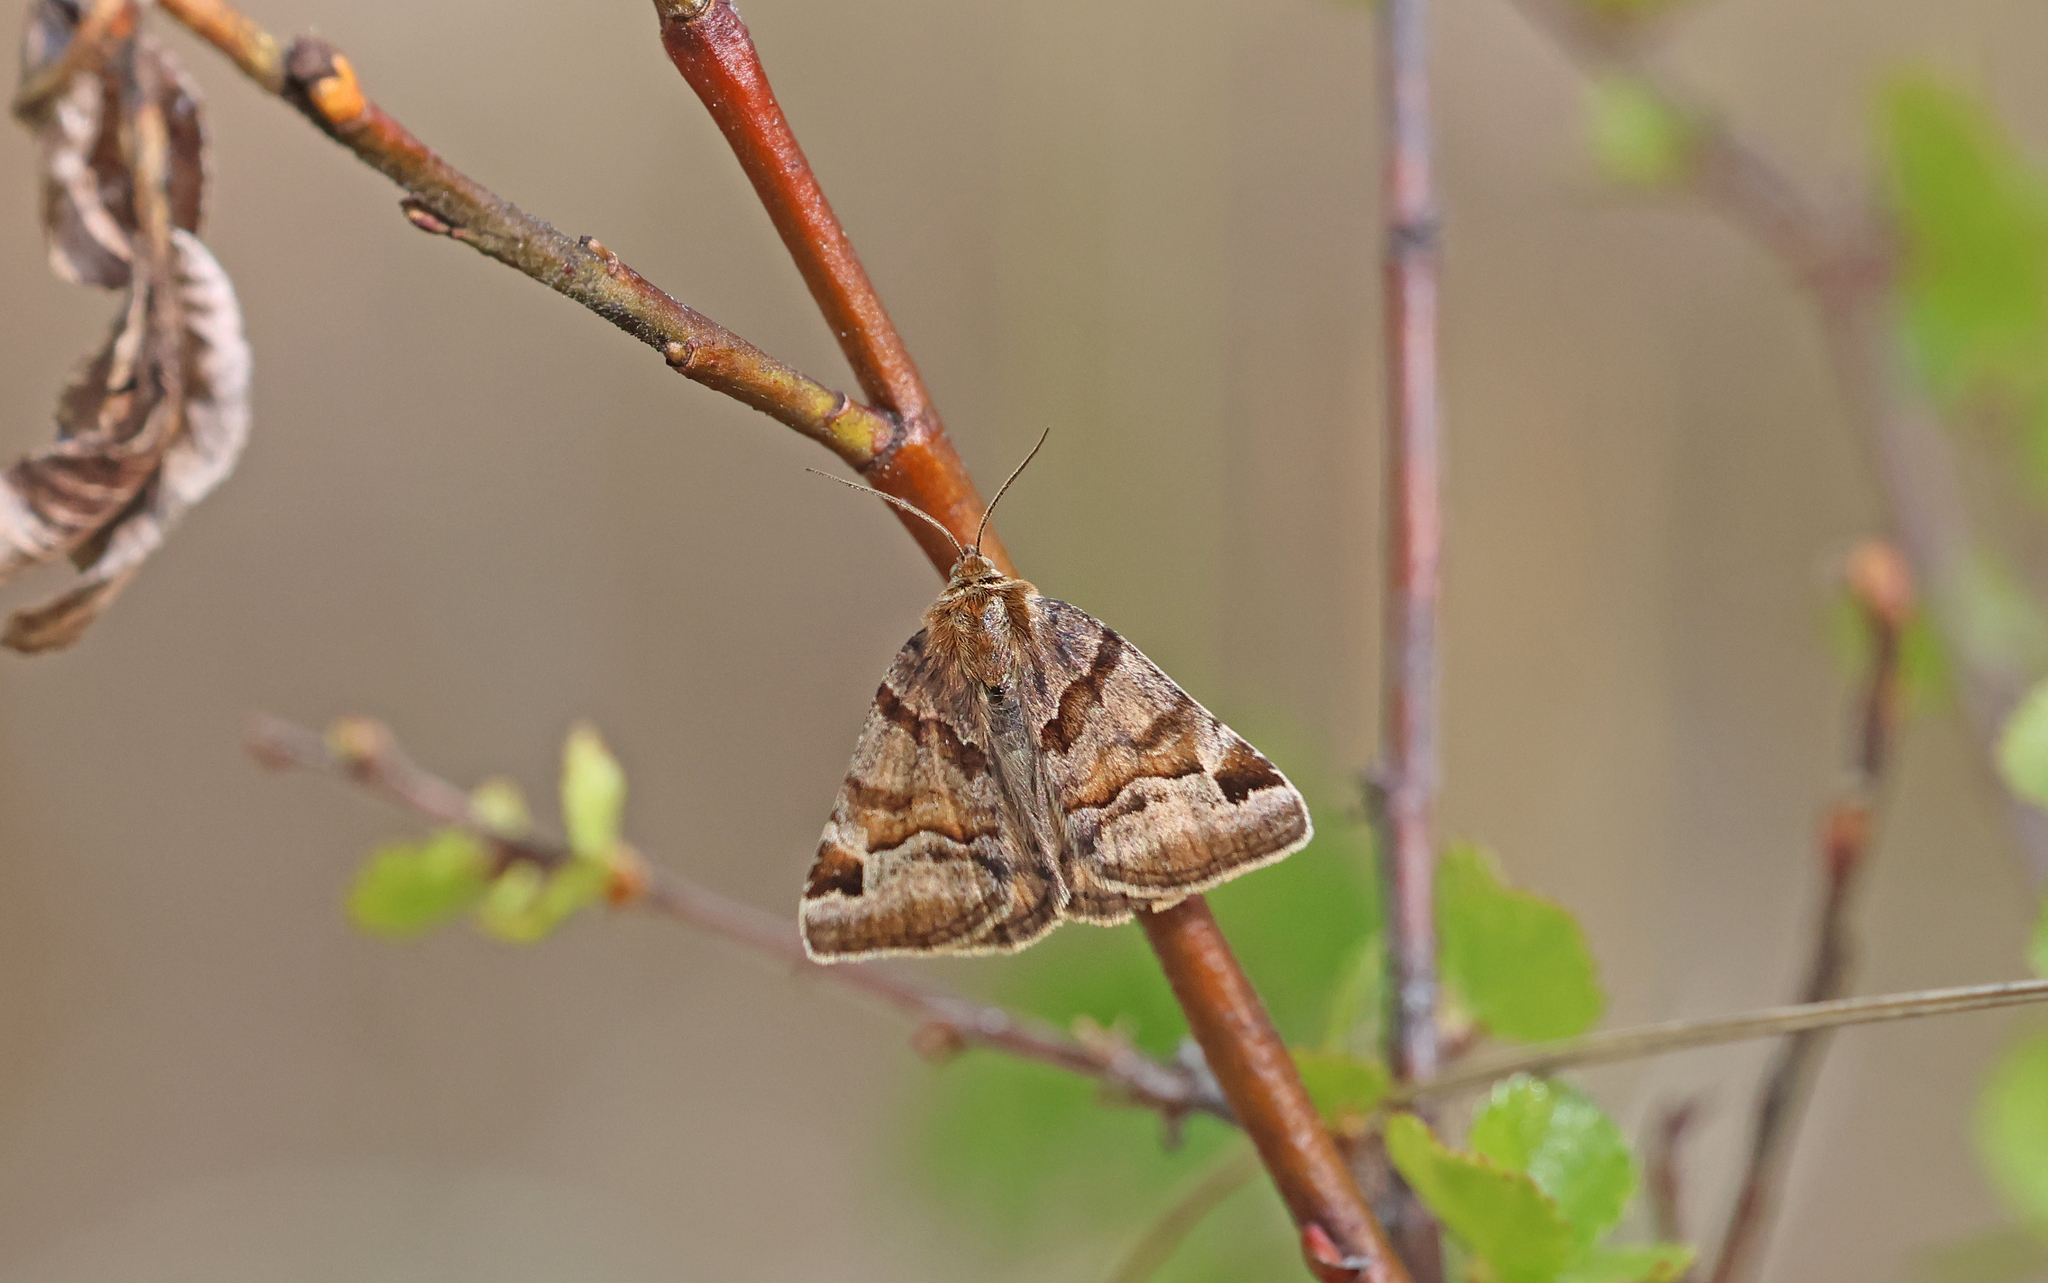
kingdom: Animalia
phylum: Arthropoda
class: Insecta
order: Lepidoptera
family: Erebidae
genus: Euclidia
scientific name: Euclidia glyphica
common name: Burnet companion
